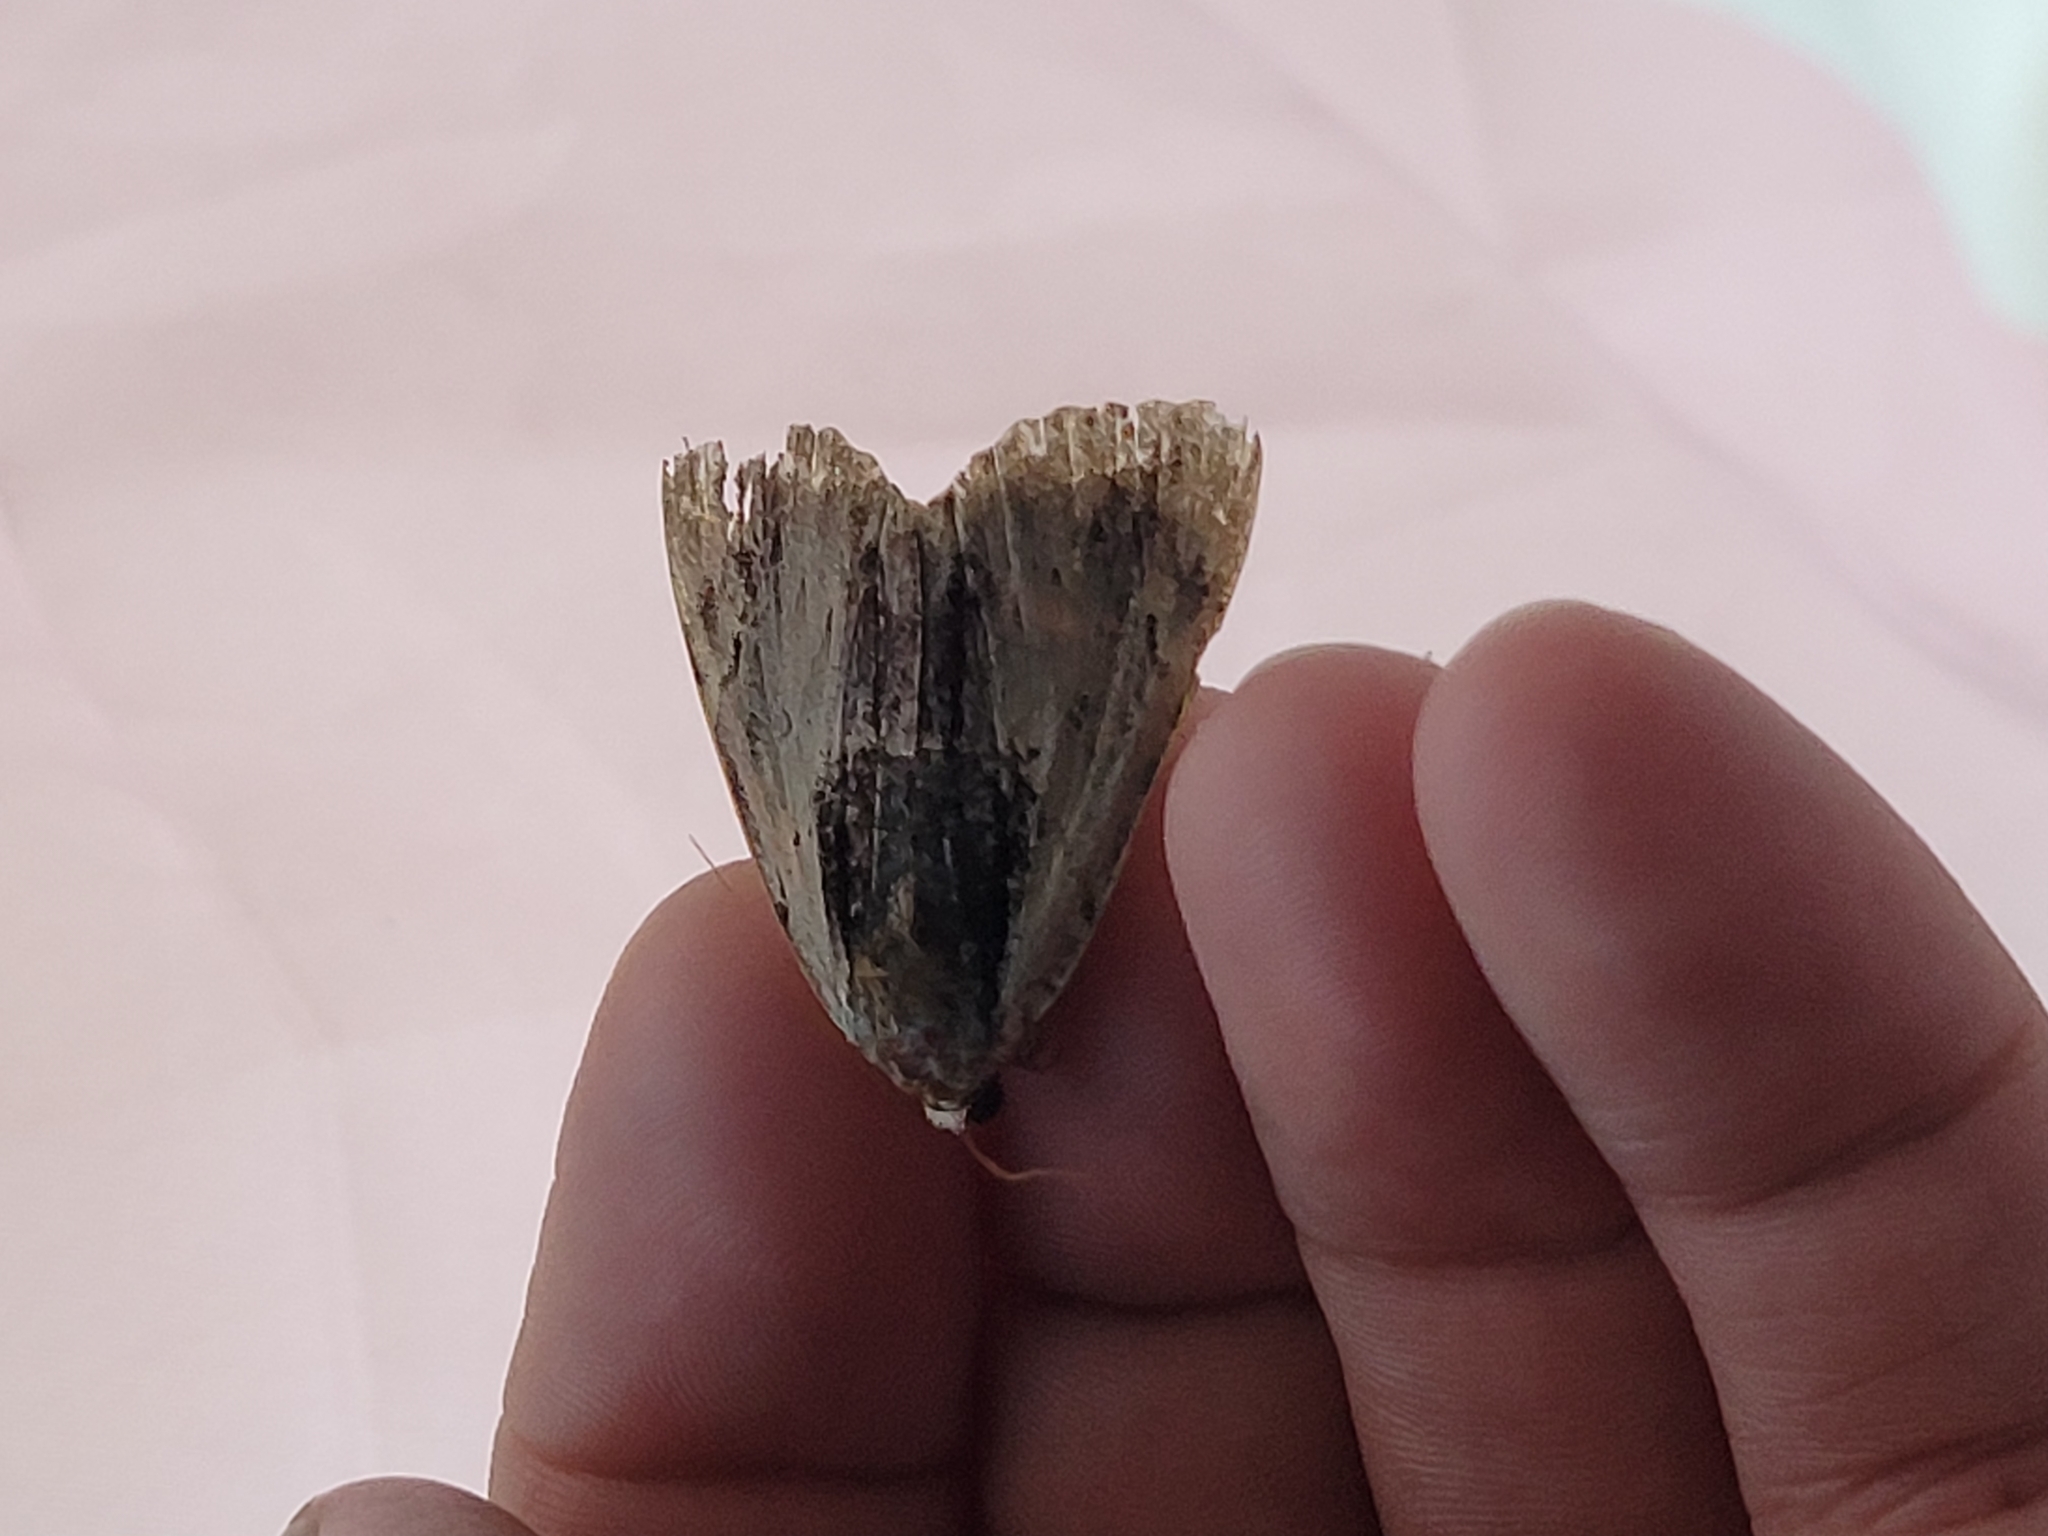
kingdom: Animalia
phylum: Arthropoda
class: Insecta
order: Lepidoptera
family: Erebidae
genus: Catocala
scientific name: Catocala ultronia
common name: Ultronia underwing
